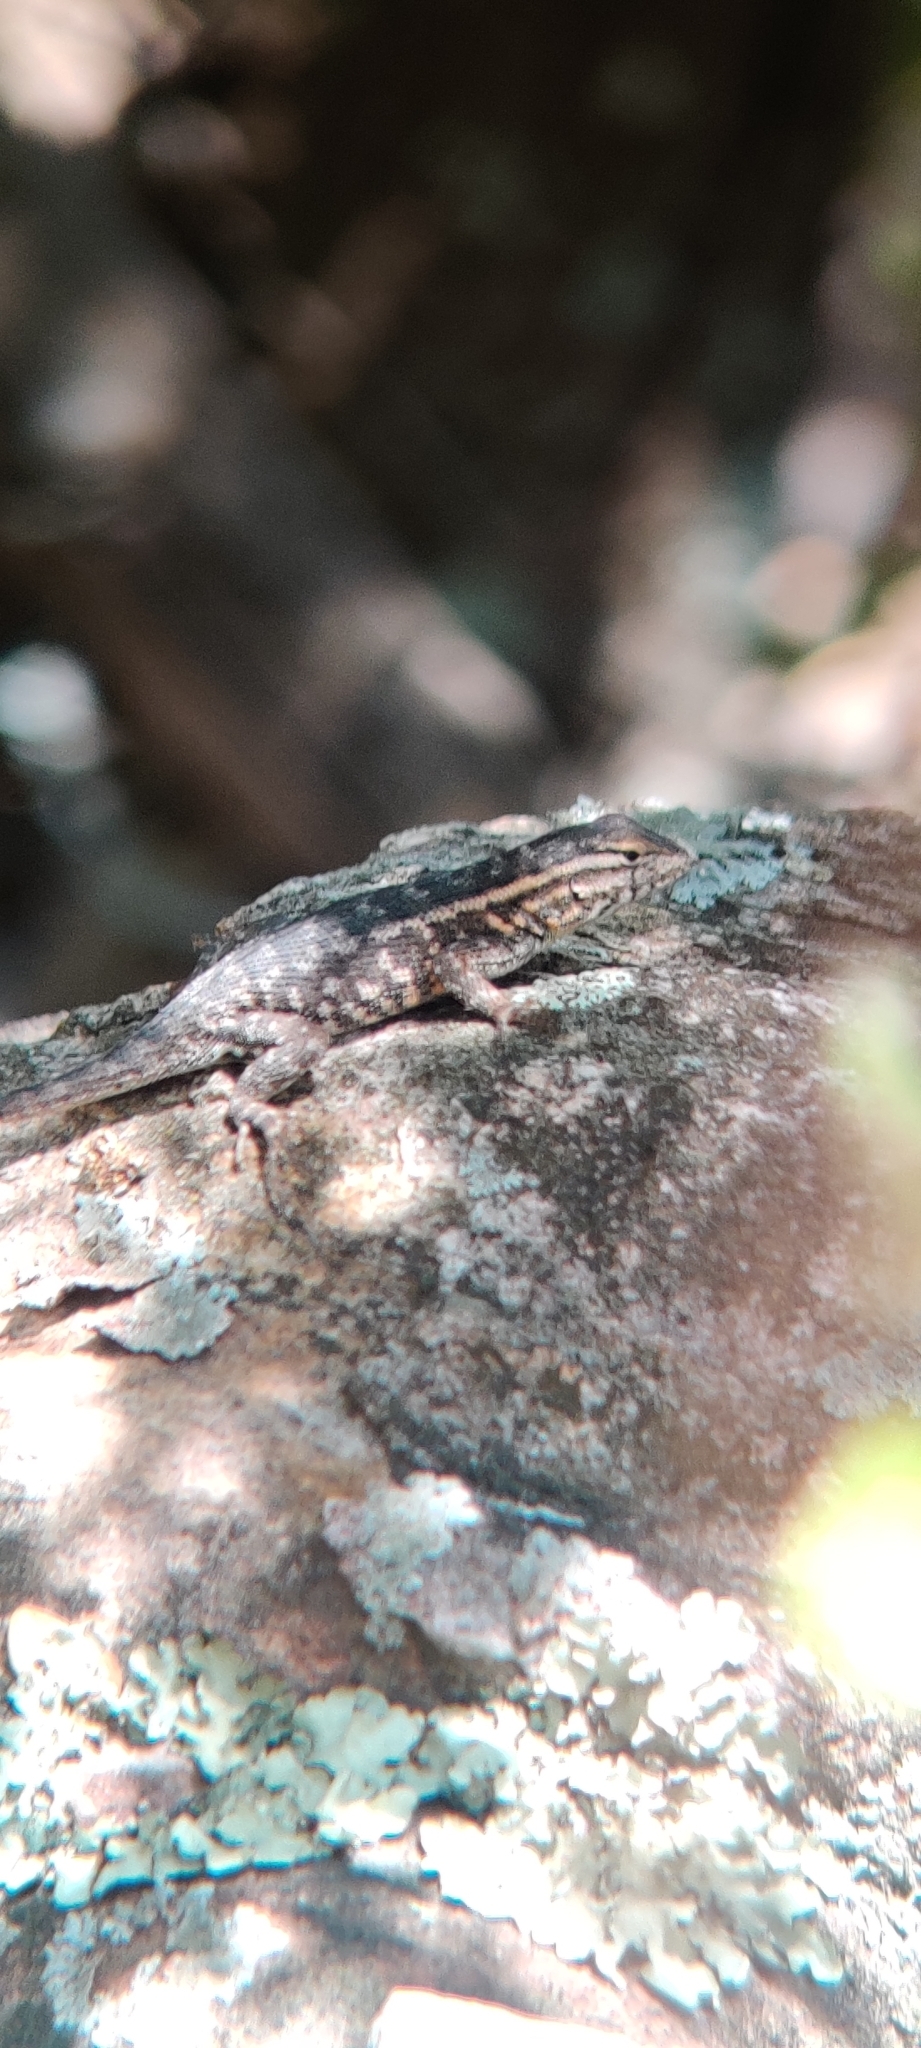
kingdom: Animalia
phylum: Chordata
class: Squamata
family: Tropiduridae
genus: Eurolophosaurus
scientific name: Eurolophosaurus nanuzae
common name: Rodrigues' lava lizard
